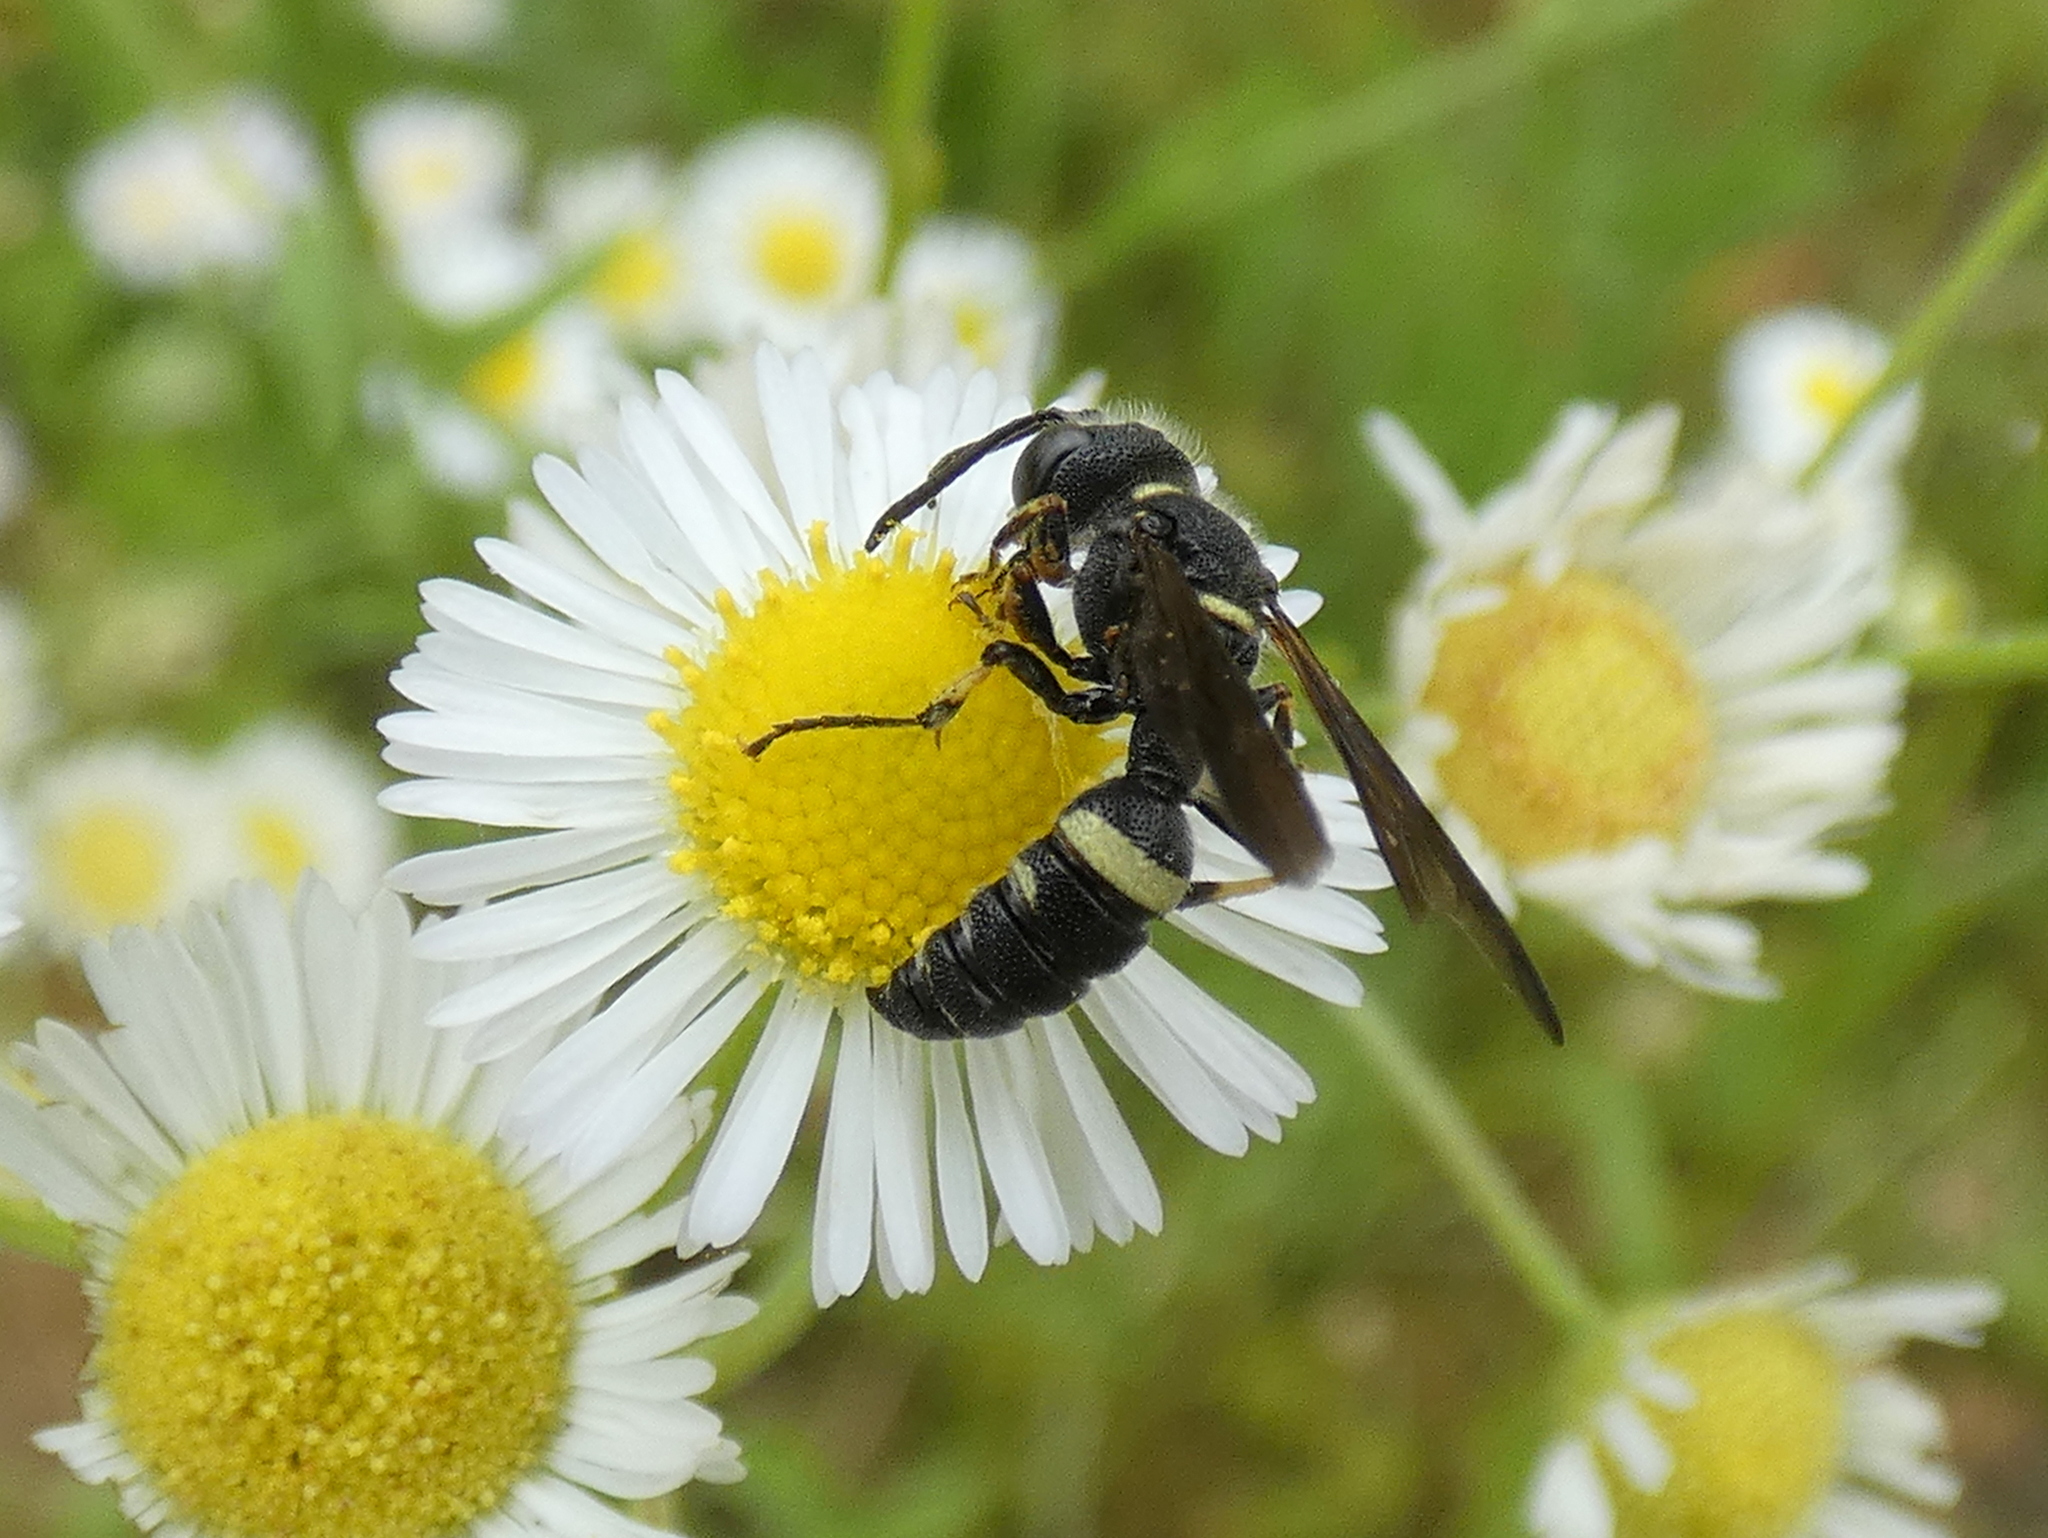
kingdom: Animalia
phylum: Arthropoda
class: Insecta
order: Hymenoptera
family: Crabronidae
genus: Cerceris
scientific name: Cerceris fumipennis
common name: Smokey-winged beetle bandit wasp
